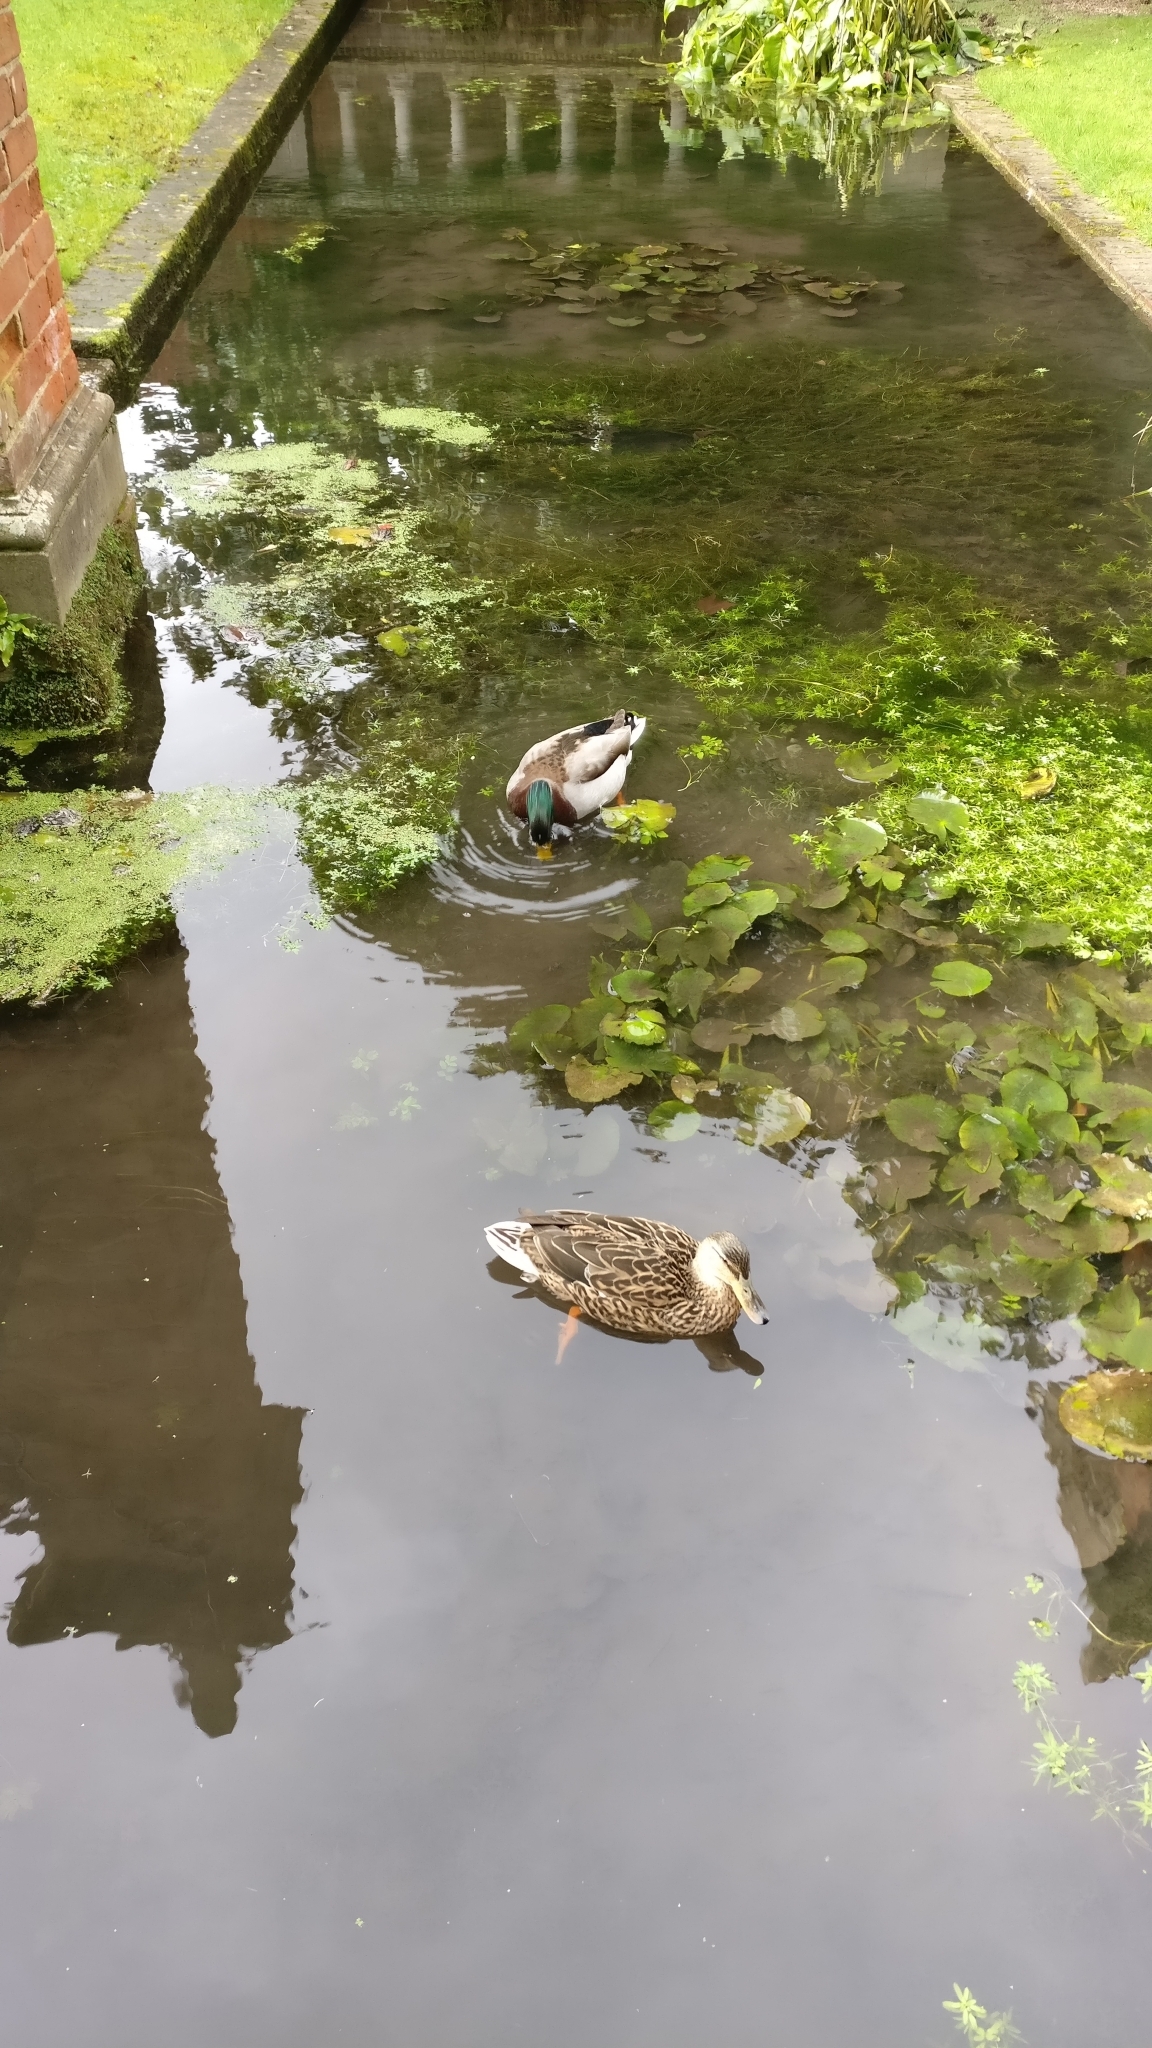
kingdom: Animalia
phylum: Chordata
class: Aves
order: Anseriformes
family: Anatidae
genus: Anas
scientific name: Anas platyrhynchos
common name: Mallard
